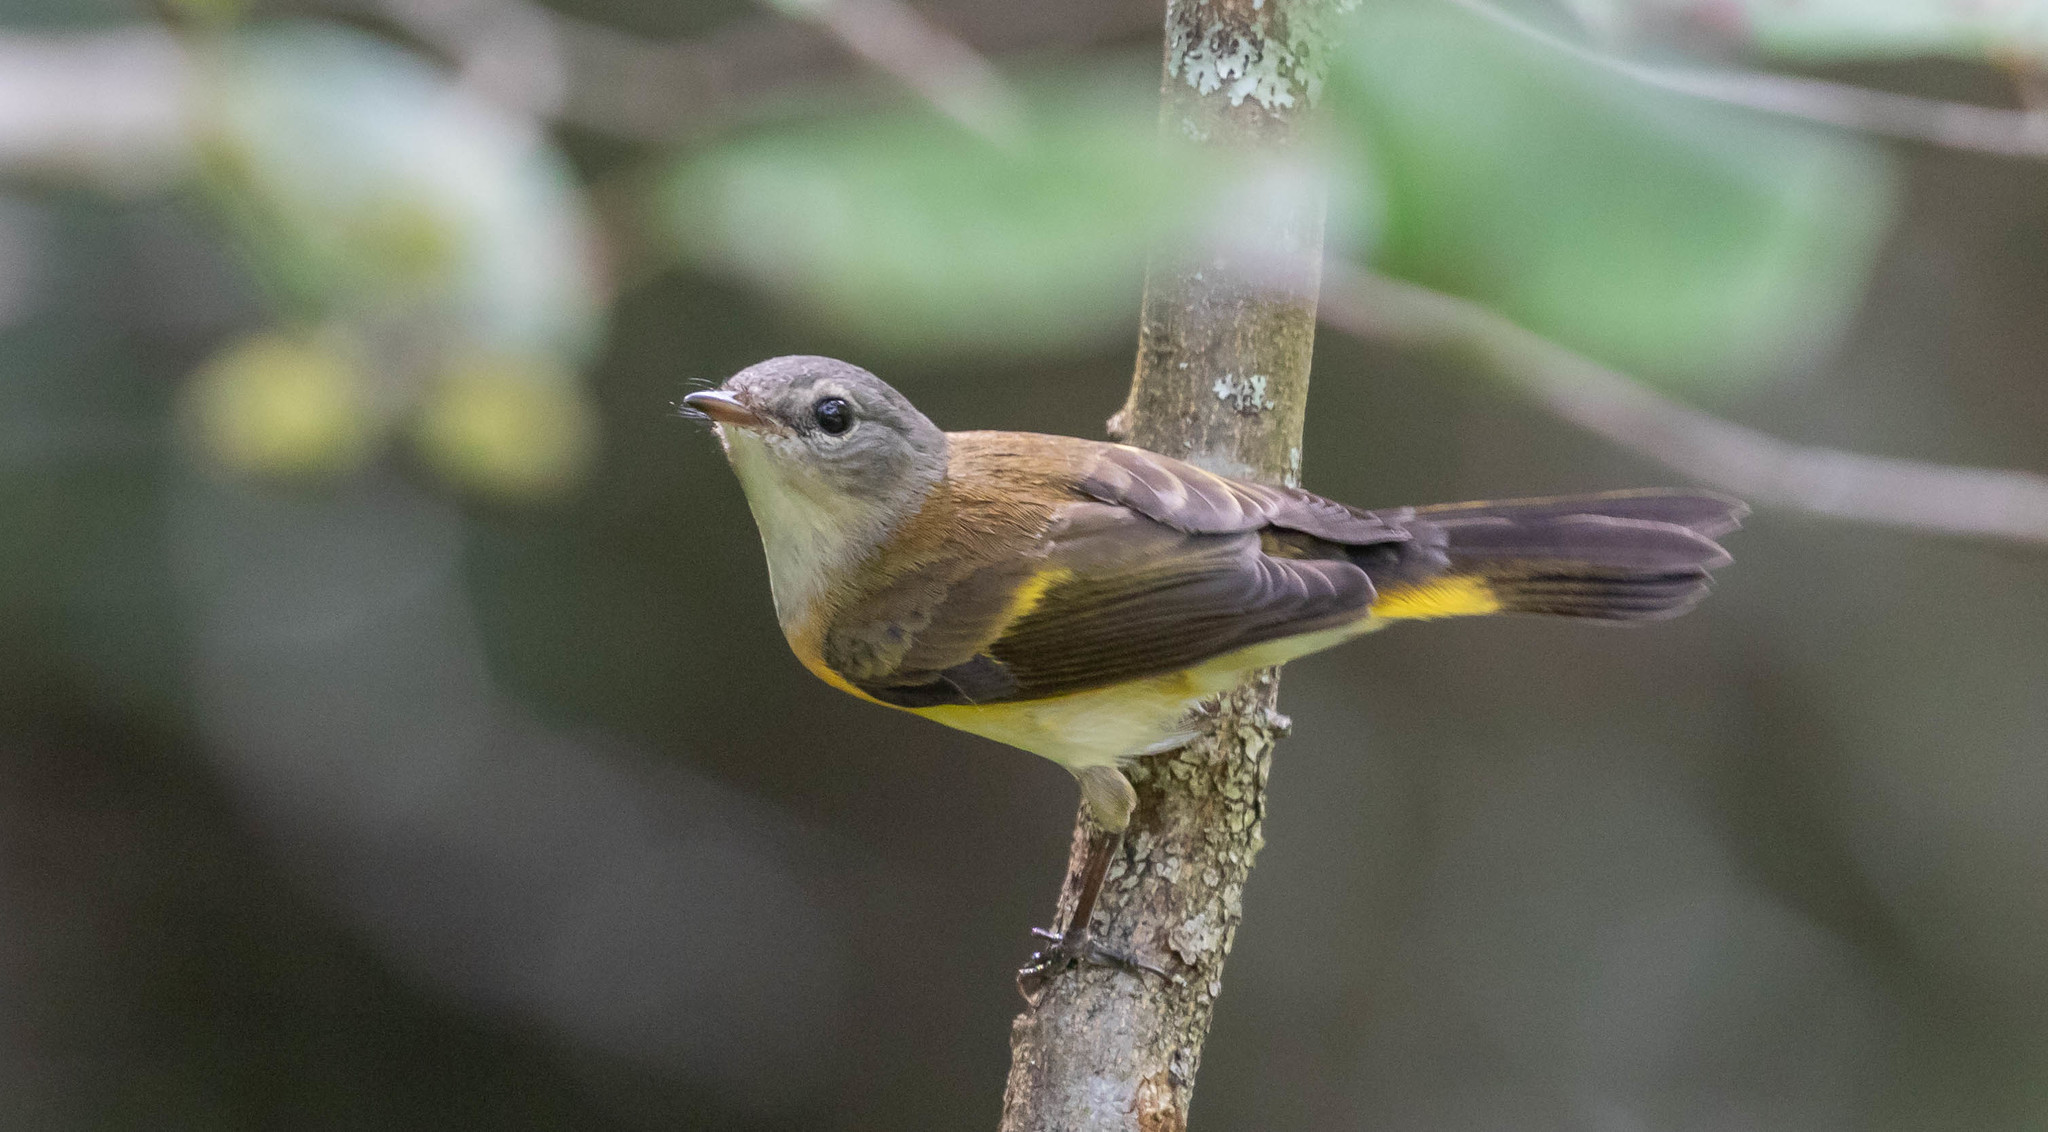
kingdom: Animalia
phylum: Chordata
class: Aves
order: Passeriformes
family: Parulidae
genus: Setophaga
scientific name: Setophaga ruticilla
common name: American redstart
